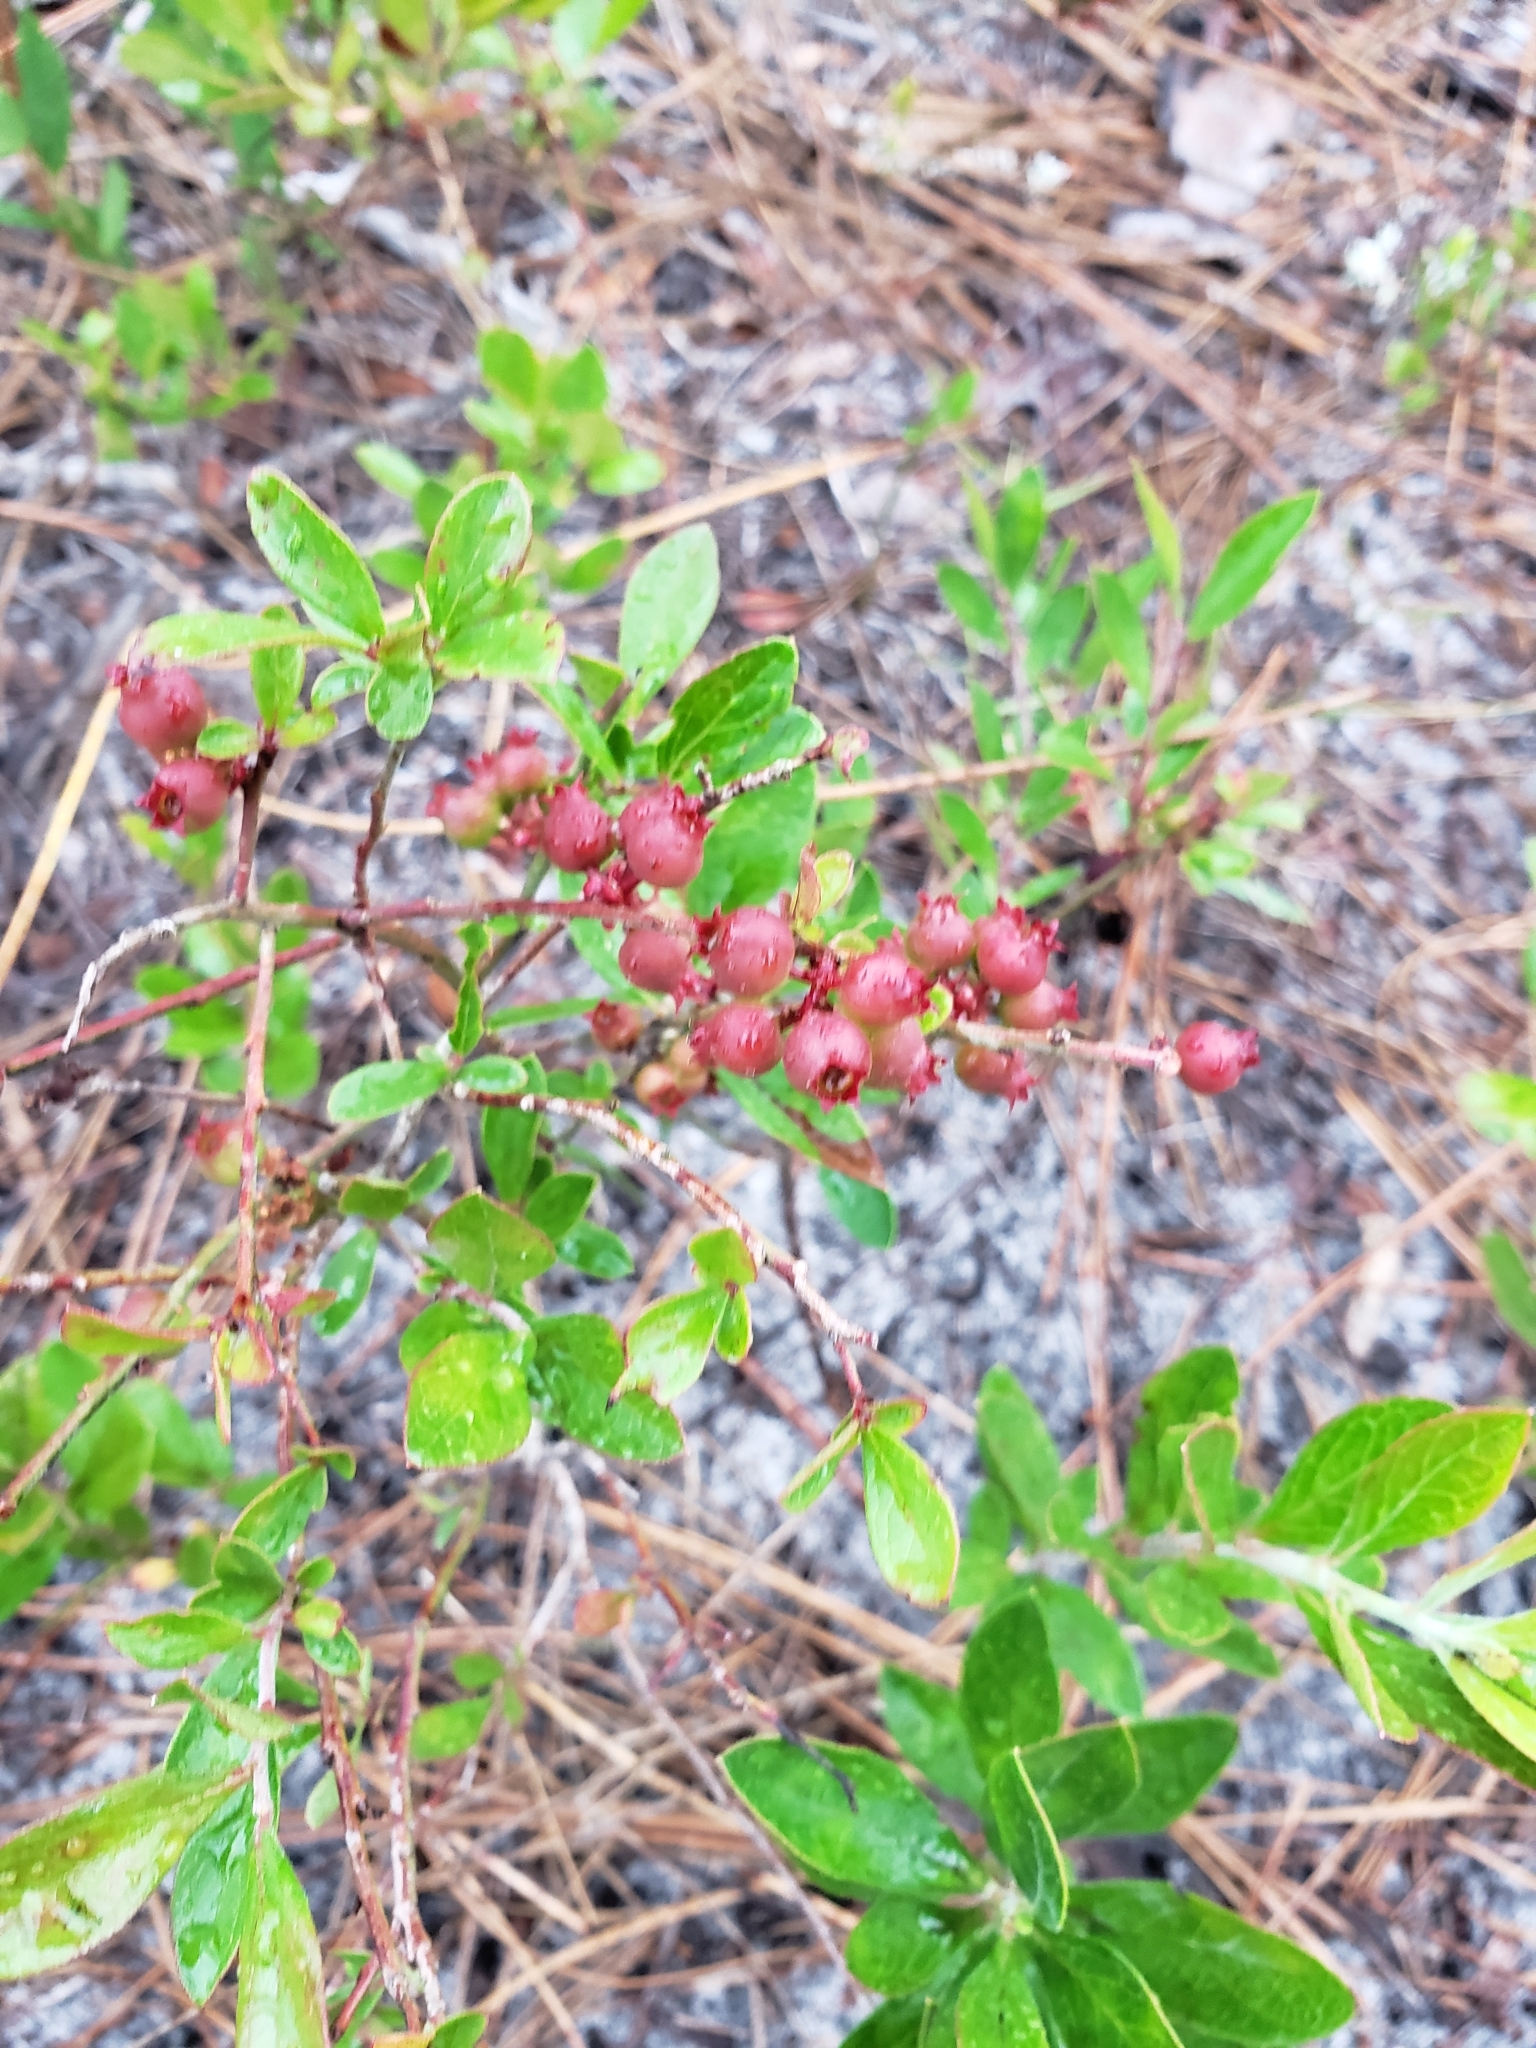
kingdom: Plantae
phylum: Tracheophyta
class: Magnoliopsida
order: Ericales
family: Ericaceae
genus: Gaylussacia
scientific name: Gaylussacia dumosa
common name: Dwarf huckleberry
